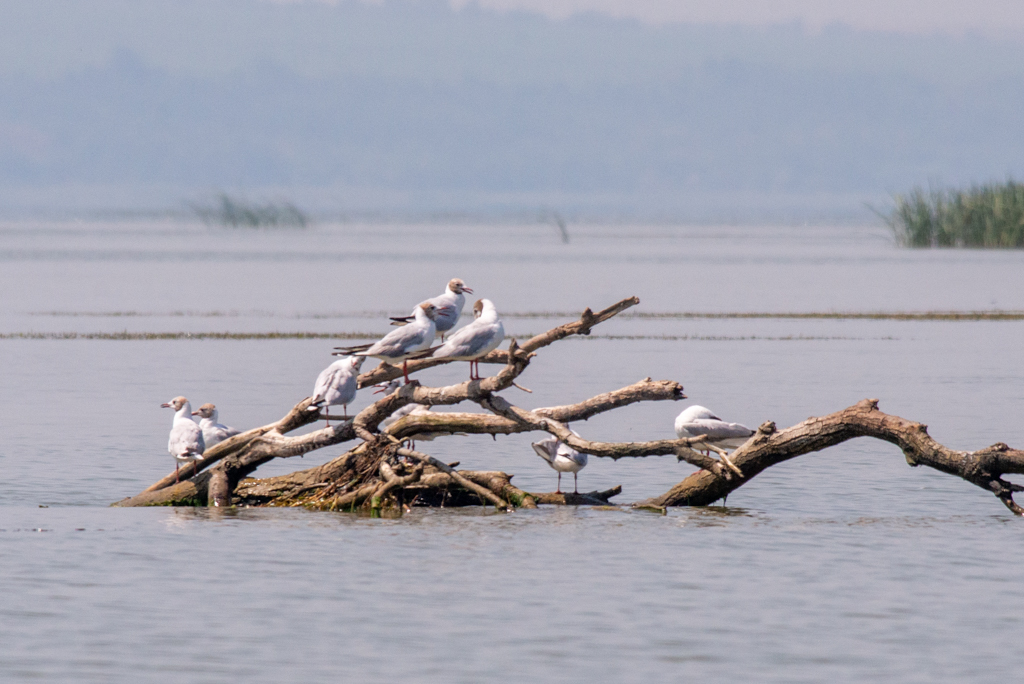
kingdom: Animalia
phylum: Chordata
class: Aves
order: Charadriiformes
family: Laridae
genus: Chroicocephalus
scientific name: Chroicocephalus ridibundus
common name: Black-headed gull
